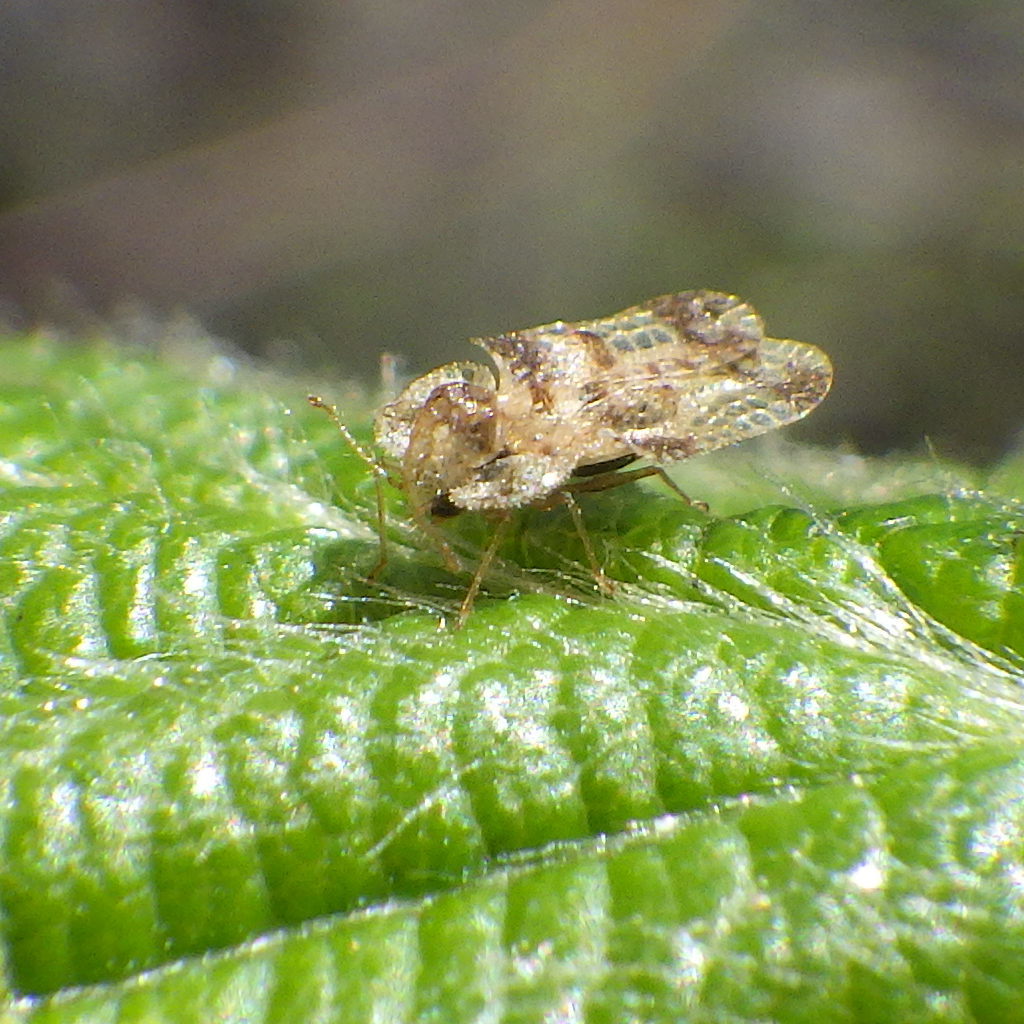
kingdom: Animalia
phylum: Arthropoda
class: Insecta
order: Hemiptera
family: Tingidae
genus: Corythucha
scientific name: Corythucha bellula
